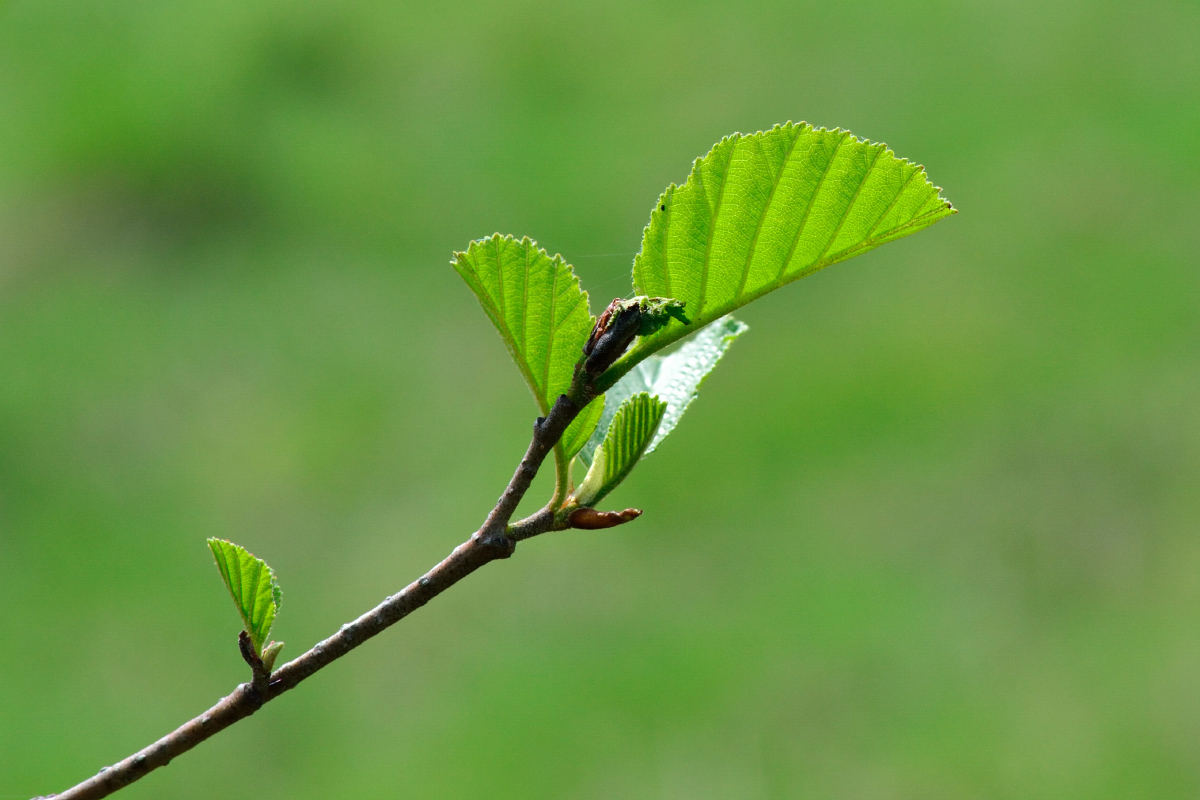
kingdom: Plantae
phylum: Tracheophyta
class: Magnoliopsida
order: Fagales
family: Betulaceae
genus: Alnus
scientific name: Alnus glutinosa
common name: Black alder
